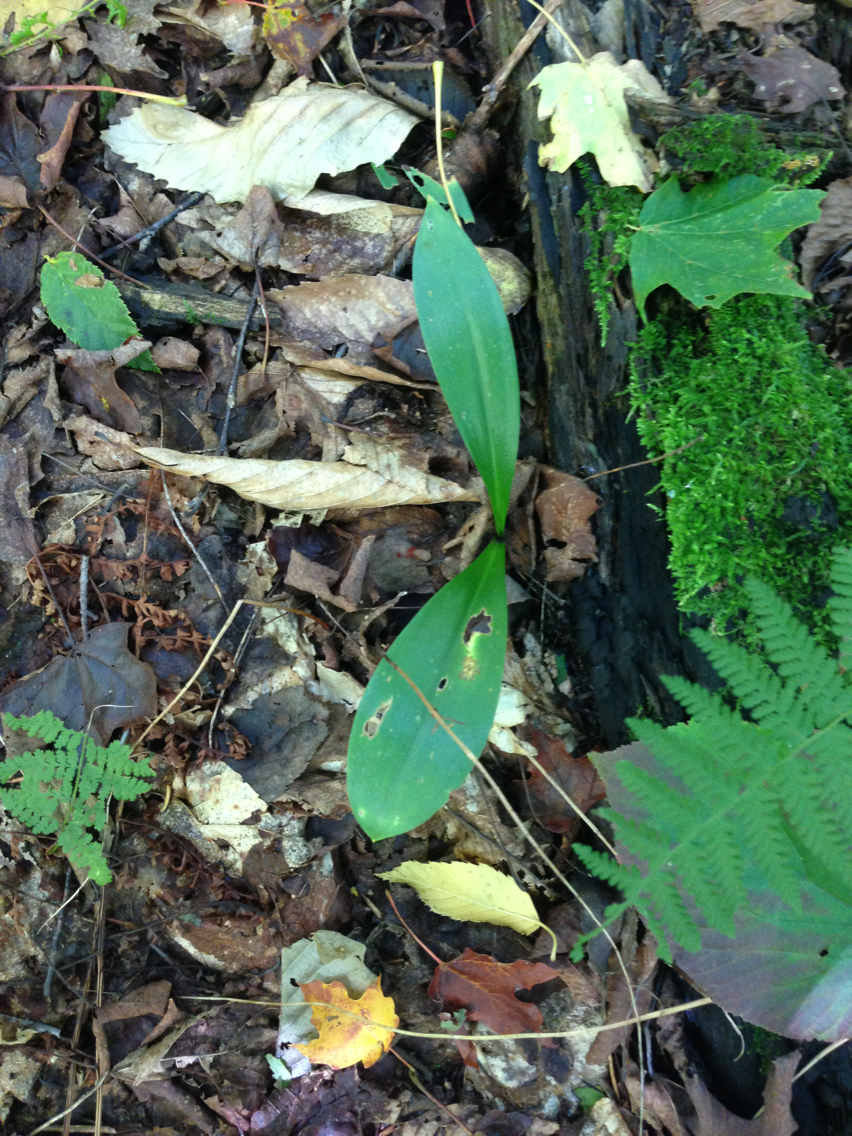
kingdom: Plantae
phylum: Tracheophyta
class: Liliopsida
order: Liliales
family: Liliaceae
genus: Clintonia
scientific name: Clintonia borealis
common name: Yellow clintonia
